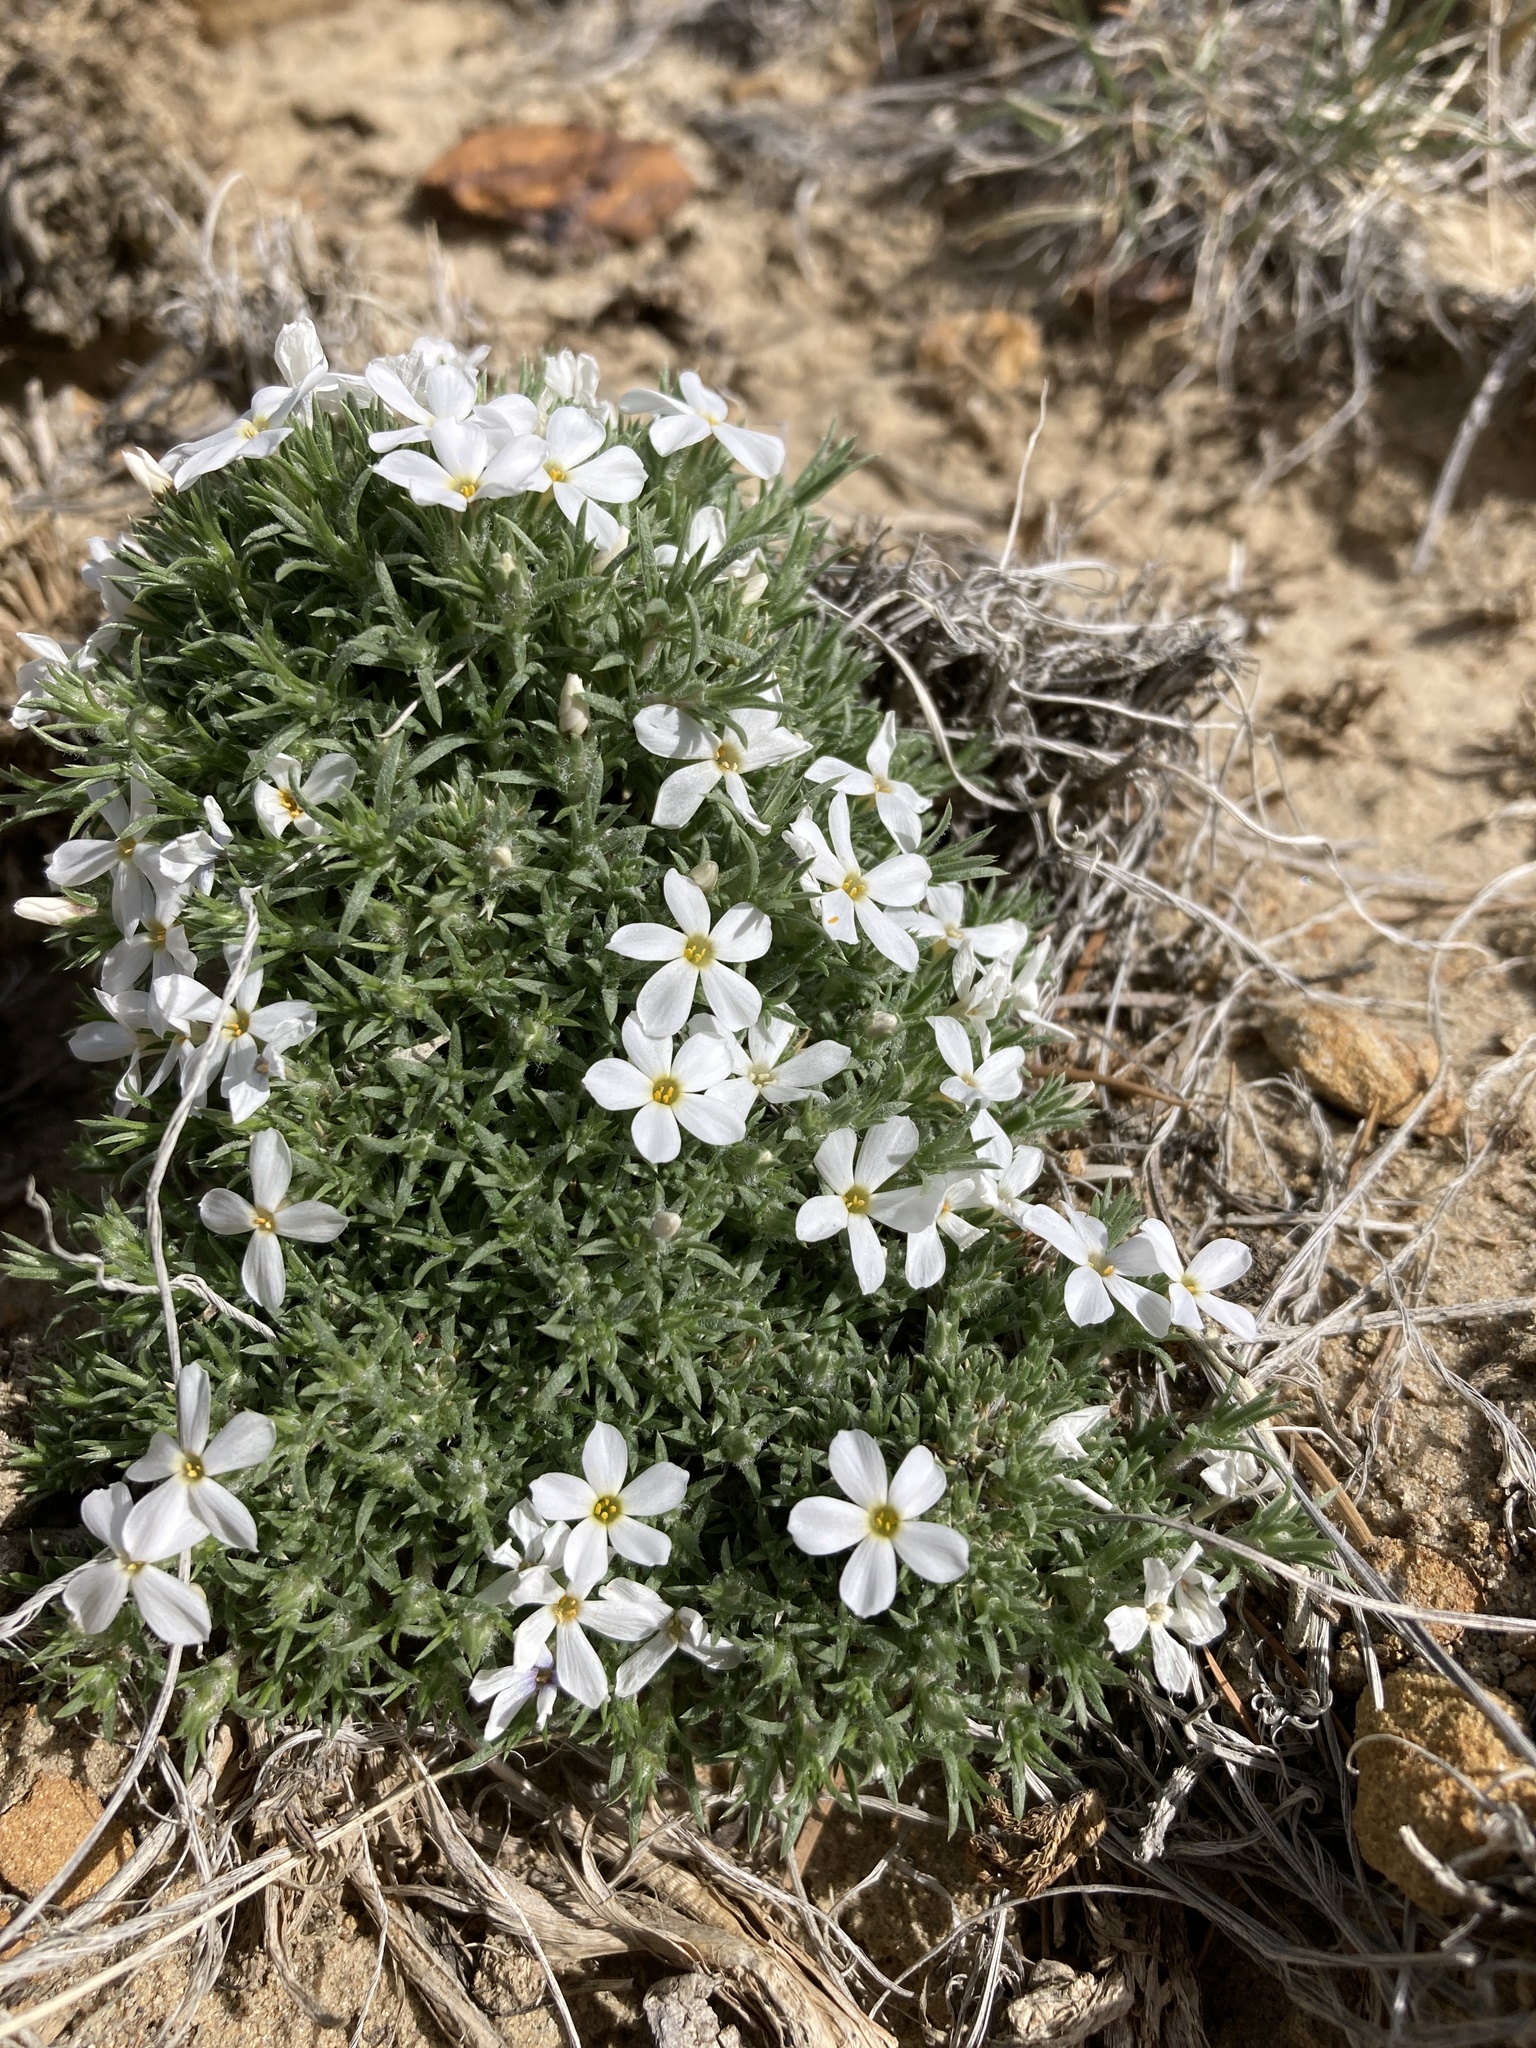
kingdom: Plantae
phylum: Tracheophyta
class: Magnoliopsida
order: Ericales
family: Polemoniaceae
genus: Phlox
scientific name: Phlox hoodii
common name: Moss phlox
